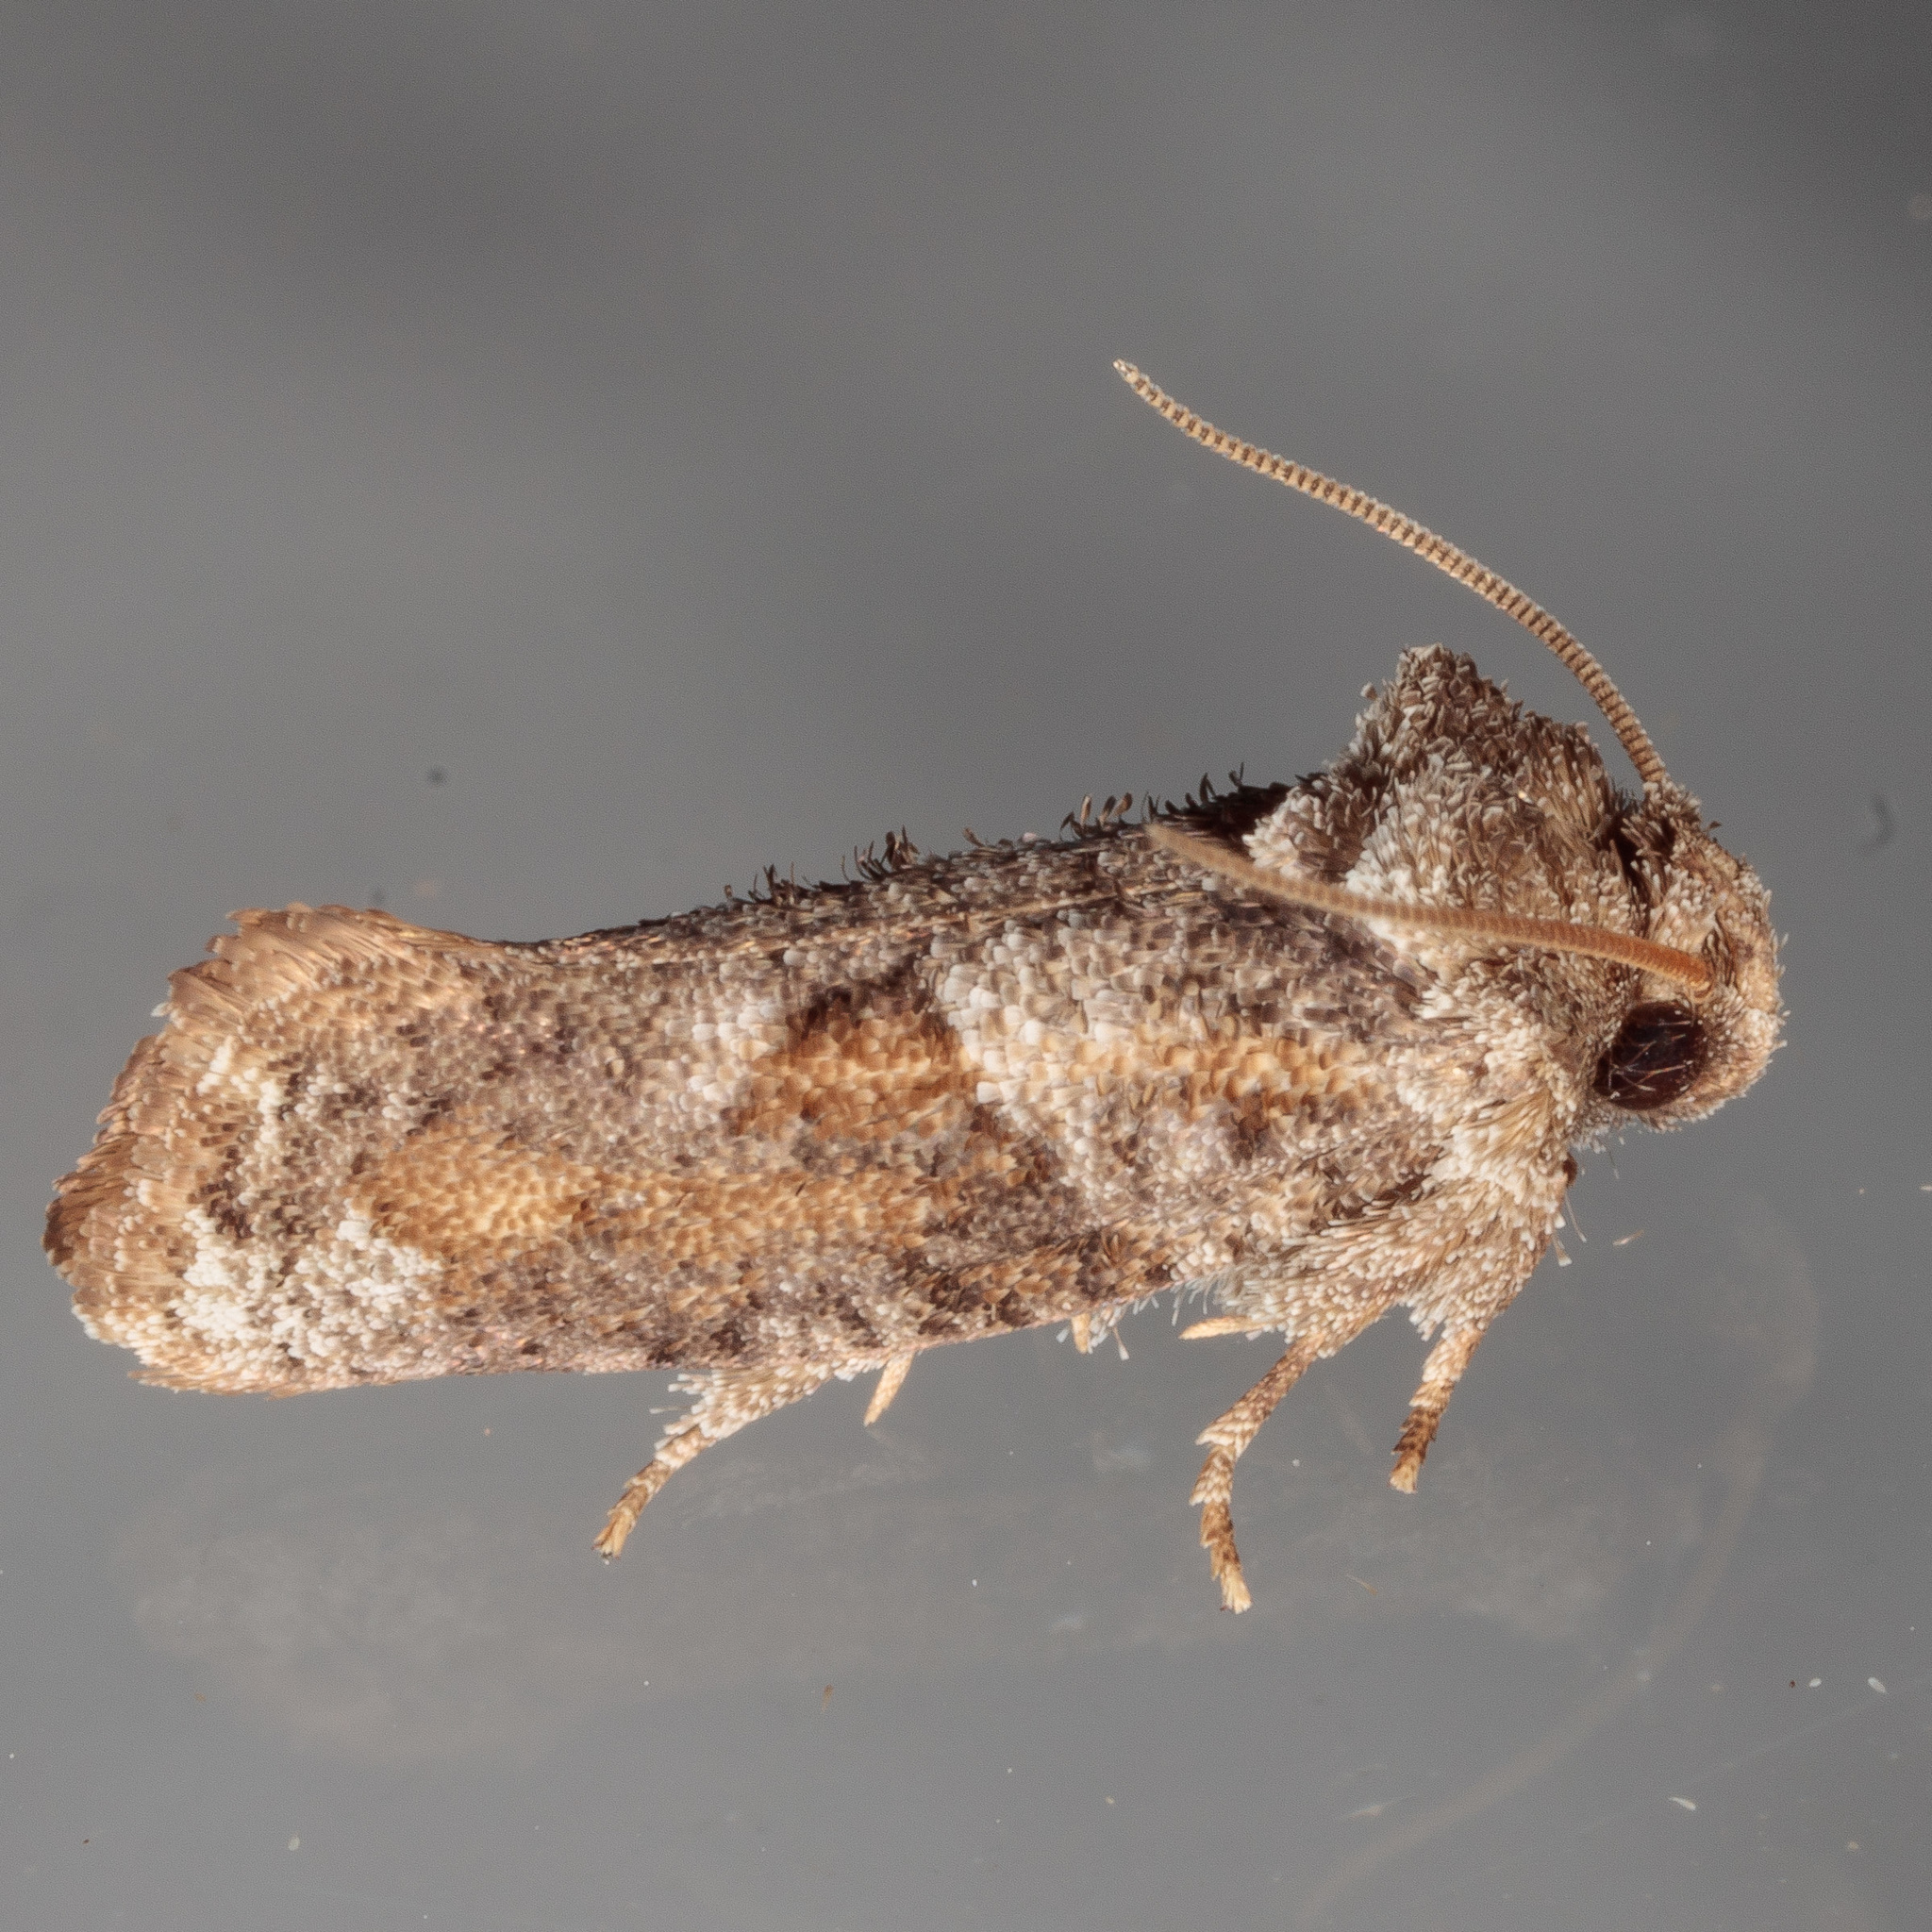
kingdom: Animalia
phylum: Arthropoda
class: Insecta
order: Lepidoptera
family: Tineidae
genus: Acrolophus
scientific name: Acrolophus piger
